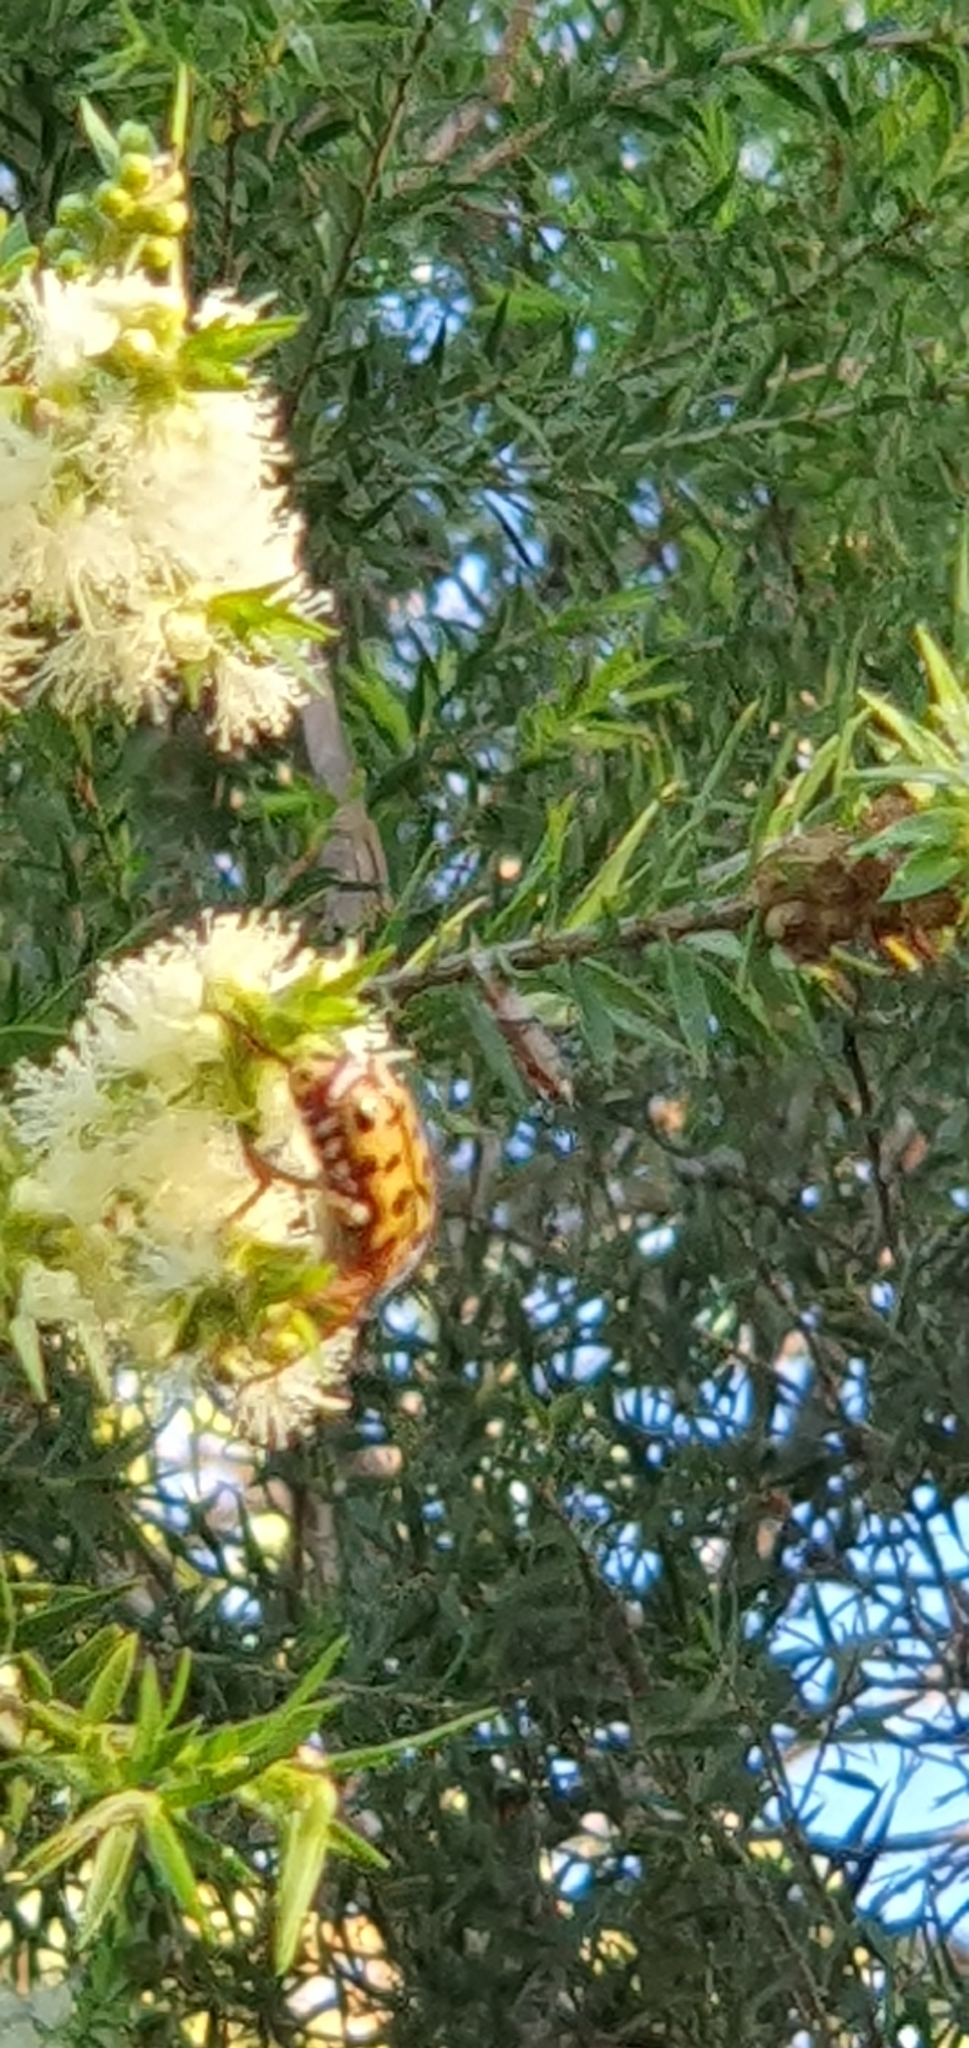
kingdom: Animalia
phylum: Arthropoda
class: Insecta
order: Coleoptera
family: Scarabaeidae
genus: Neorrhina
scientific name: Neorrhina punctatum
